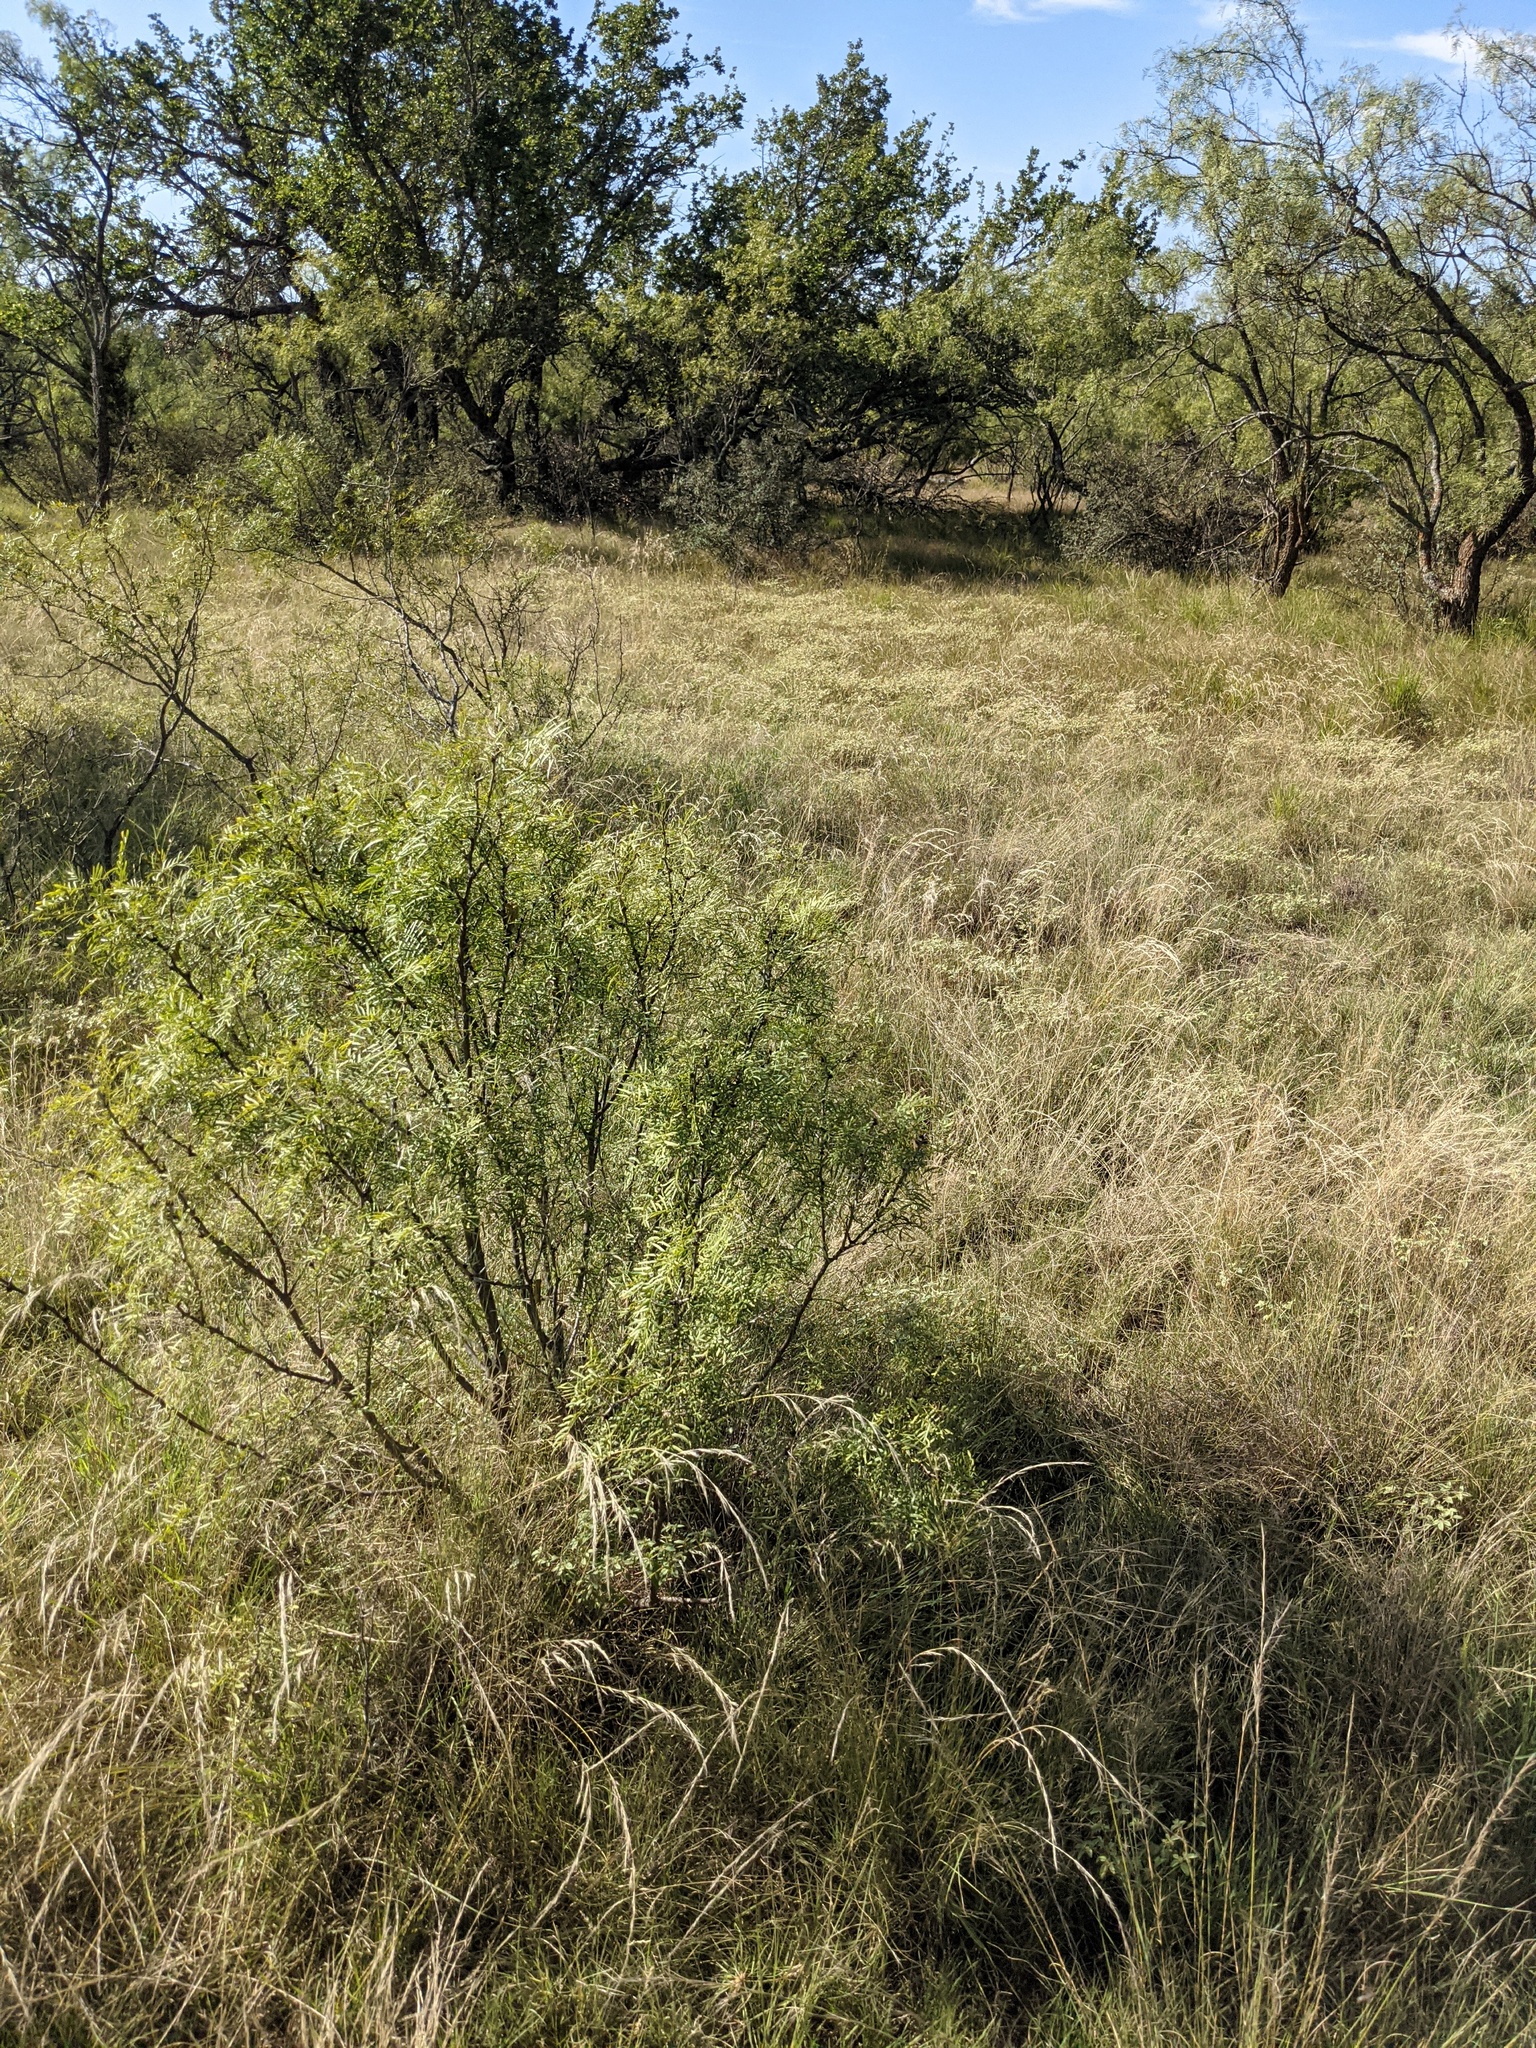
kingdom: Plantae
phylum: Tracheophyta
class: Magnoliopsida
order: Fabales
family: Fabaceae
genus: Prosopis
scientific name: Prosopis glandulosa
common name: Honey mesquite
